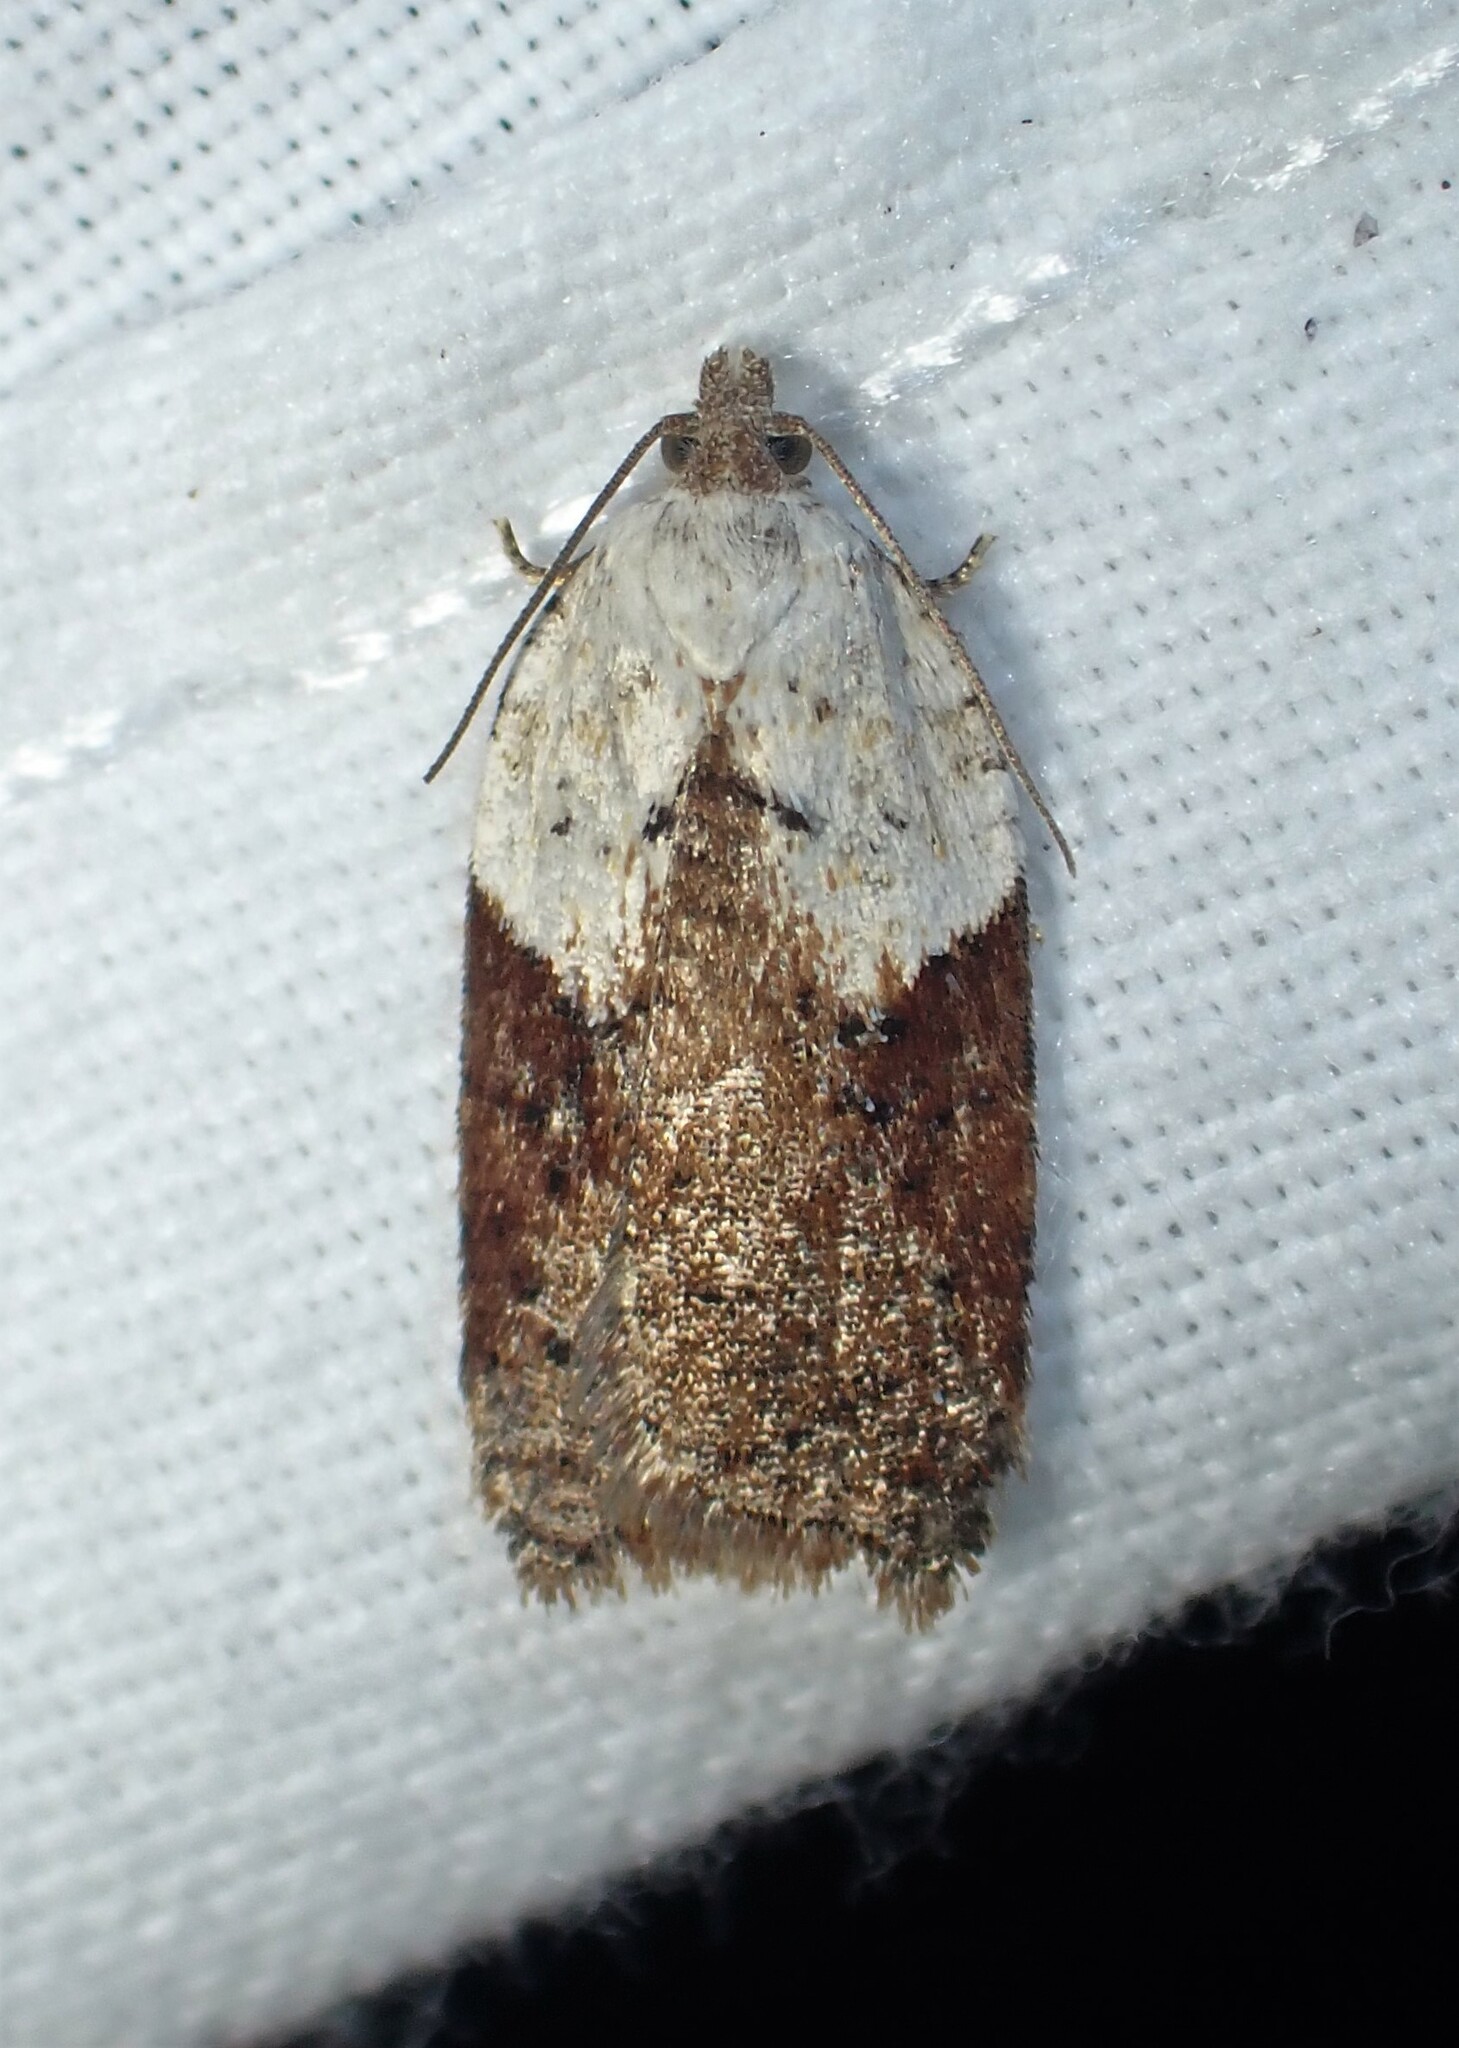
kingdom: Animalia
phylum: Arthropoda
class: Insecta
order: Lepidoptera
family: Tortricidae
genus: Acleris
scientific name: Acleris braunana
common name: Alder leafroller
